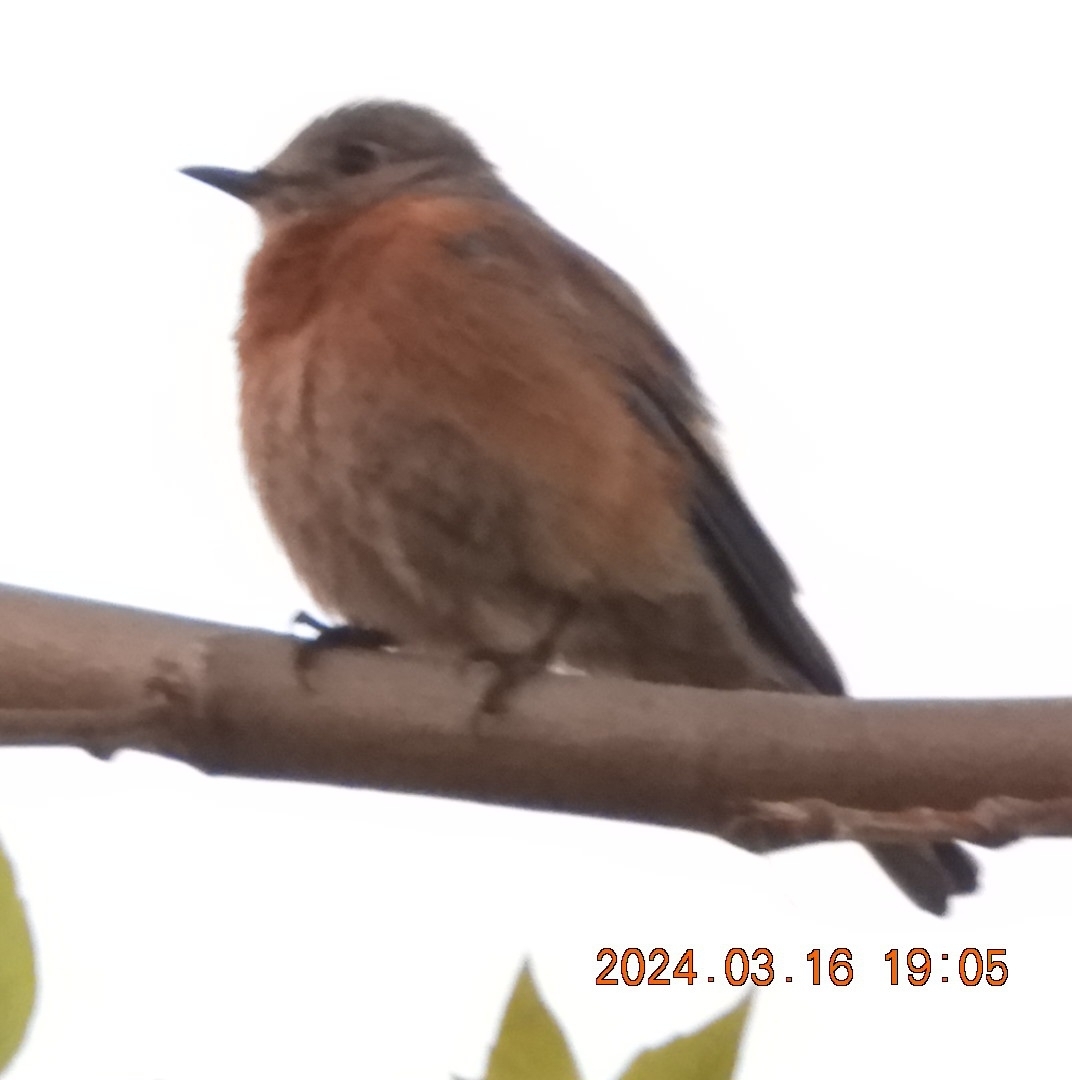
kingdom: Animalia
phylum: Chordata
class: Aves
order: Passeriformes
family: Turdidae
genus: Sialia
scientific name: Sialia mexicana
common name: Western bluebird
